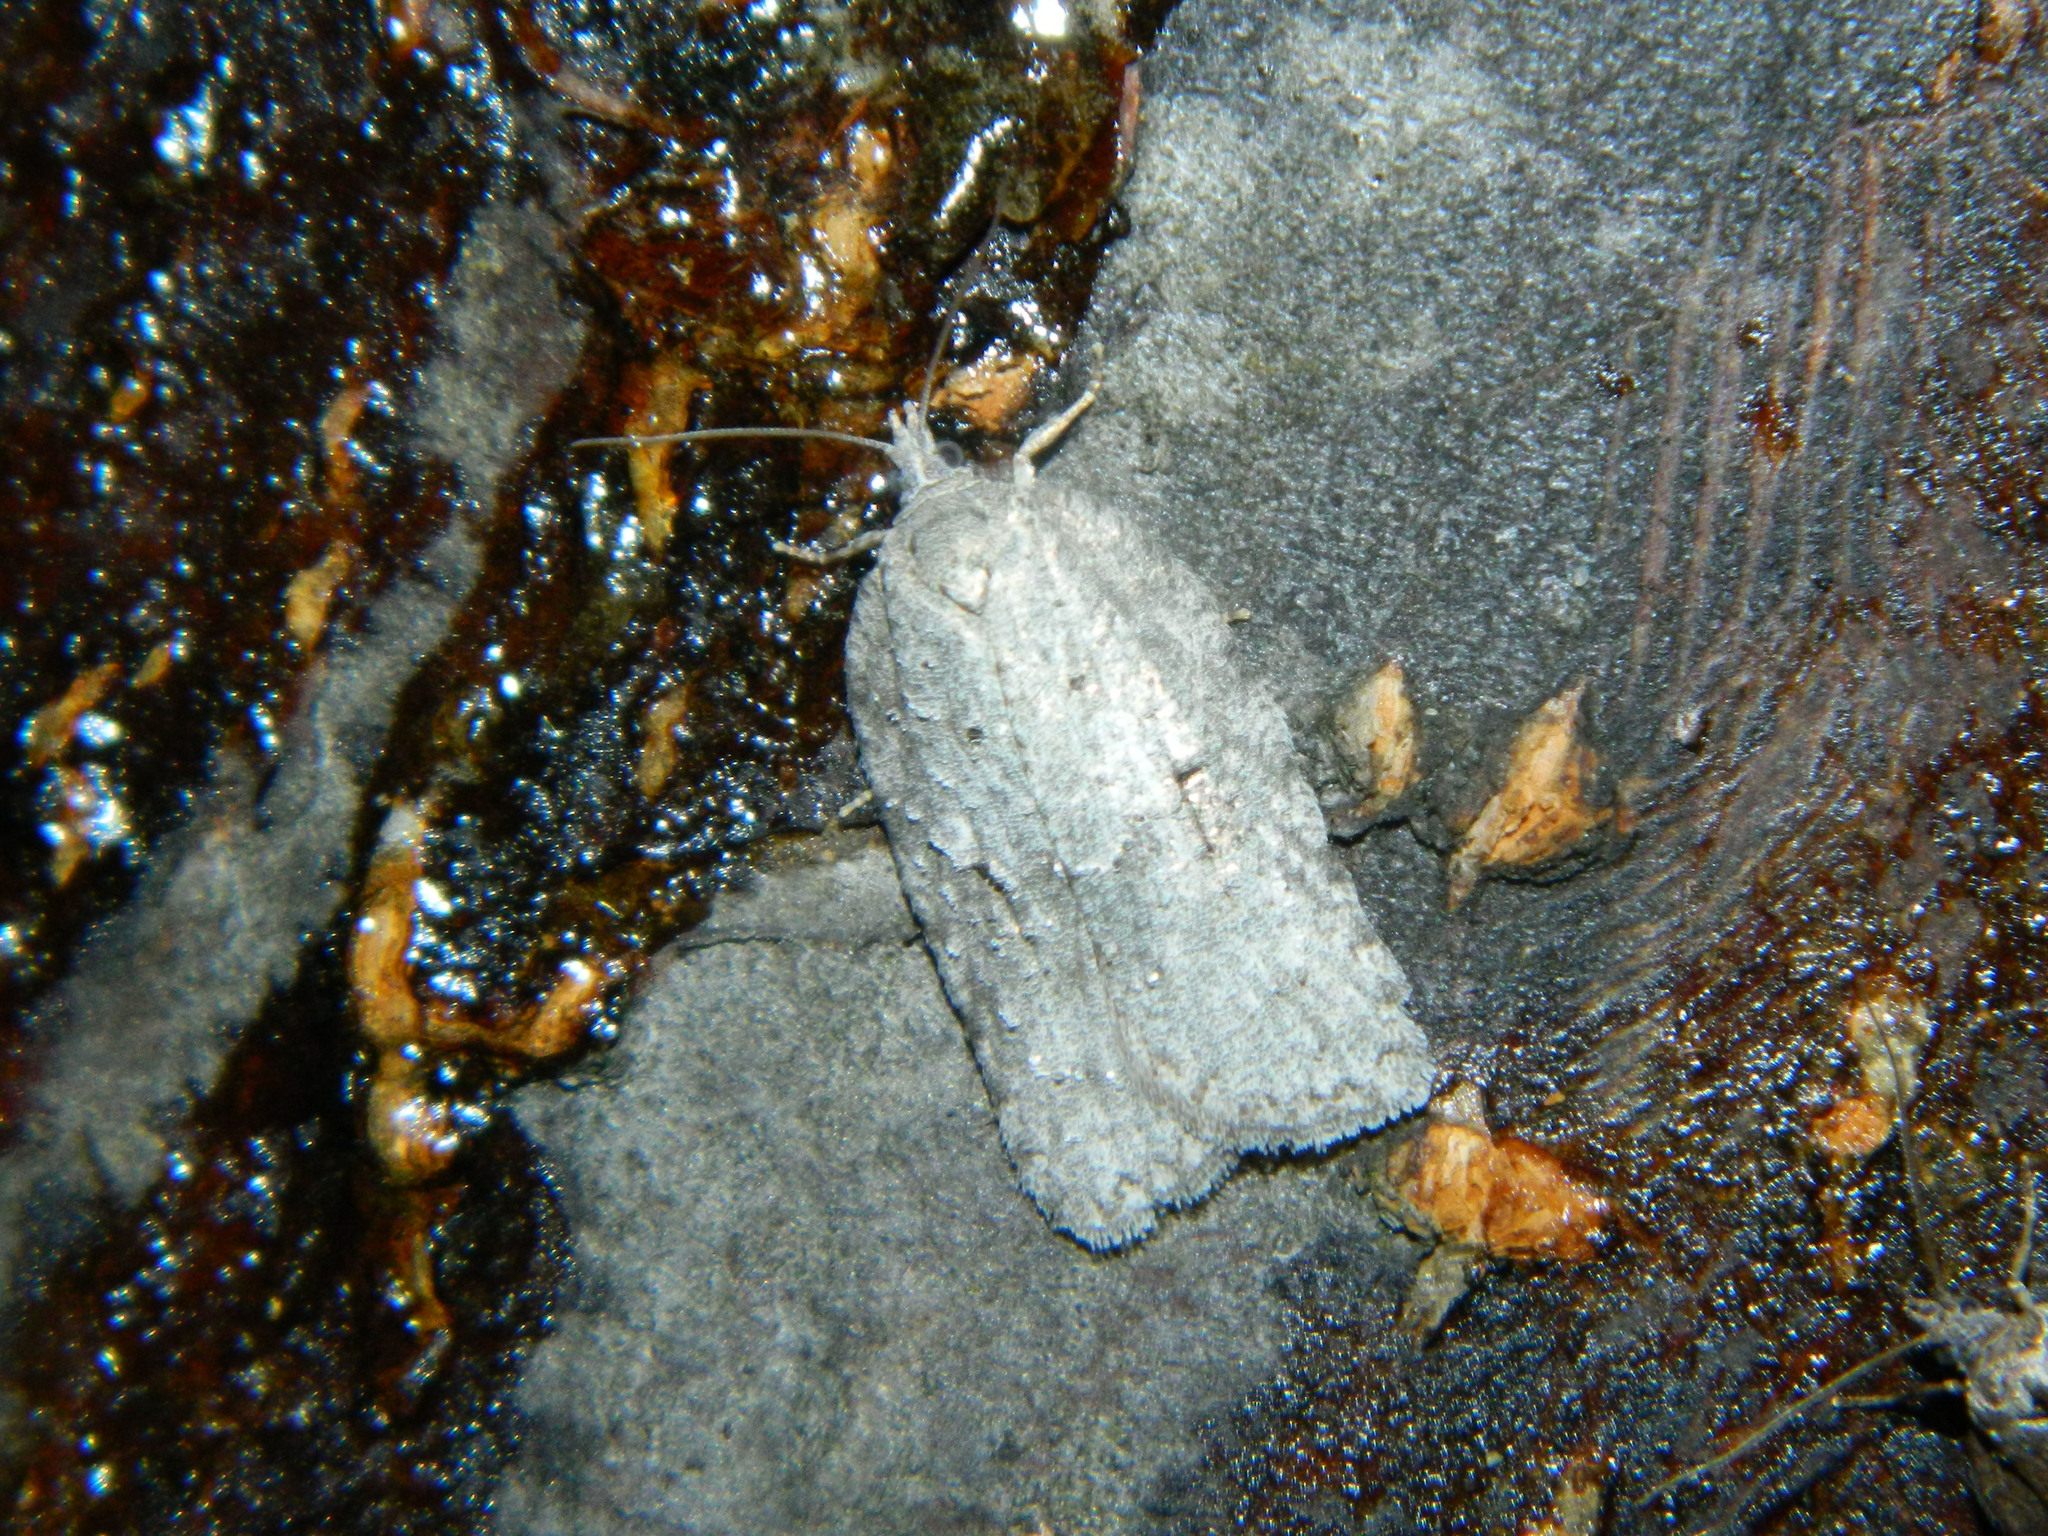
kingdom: Animalia
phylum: Arthropoda
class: Insecta
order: Lepidoptera
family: Tortricidae
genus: Acleris
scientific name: Acleris placidana
